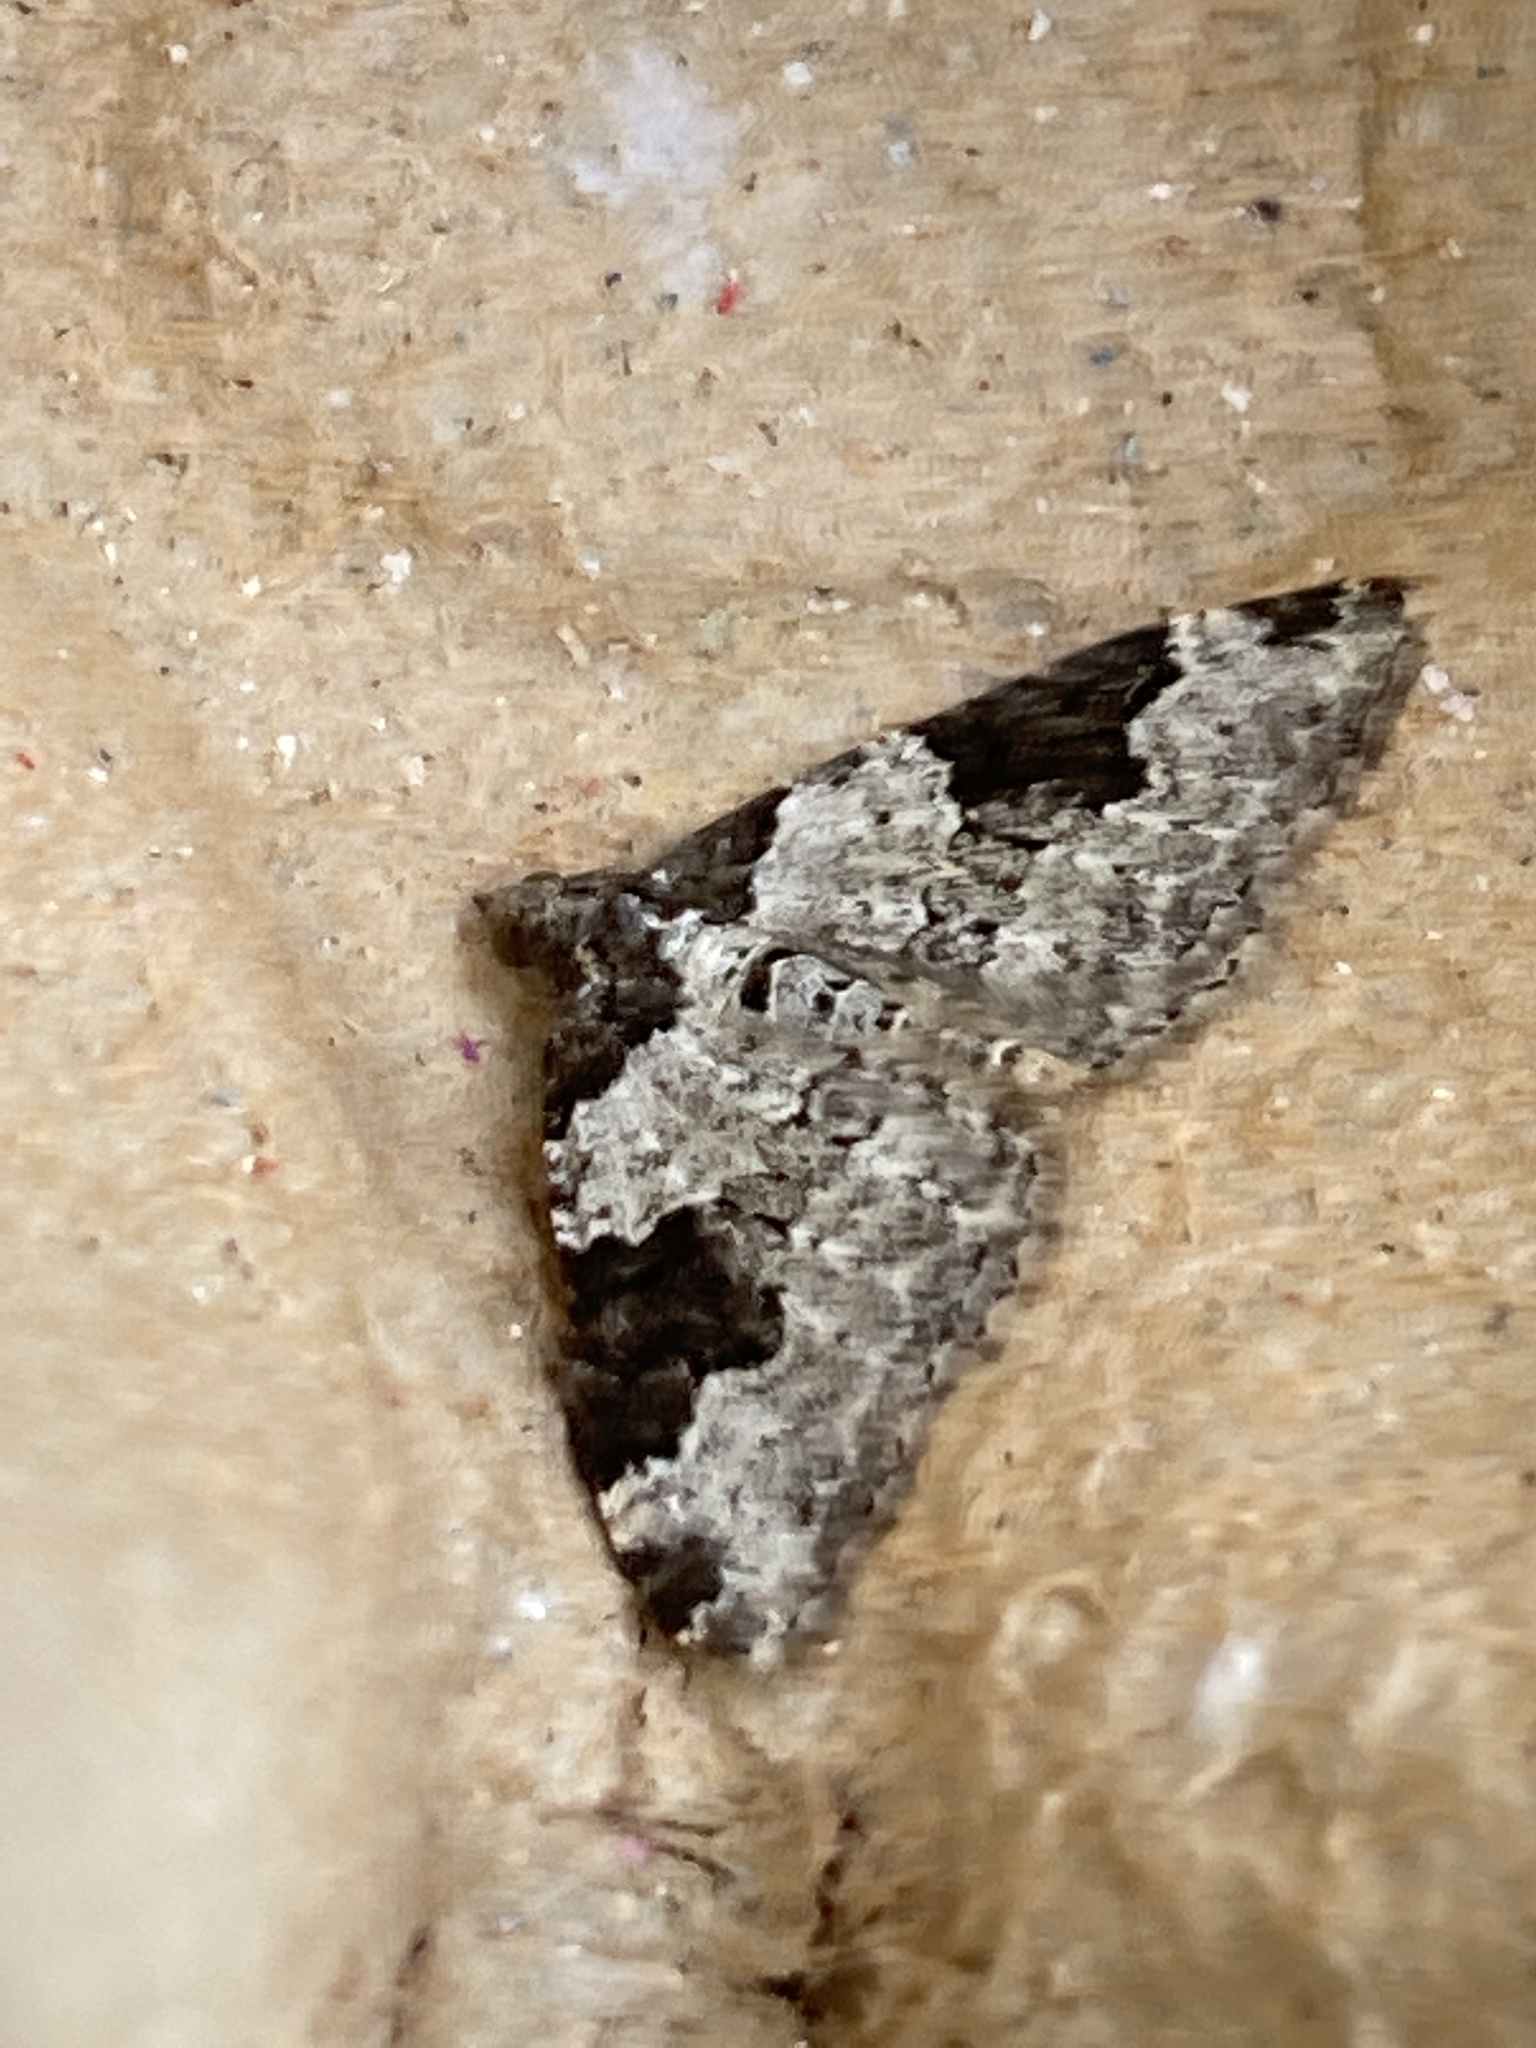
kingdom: Animalia
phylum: Arthropoda
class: Insecta
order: Lepidoptera
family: Geometridae
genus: Xanthorhoe
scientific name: Xanthorhoe fluctuata
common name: Garden carpet
